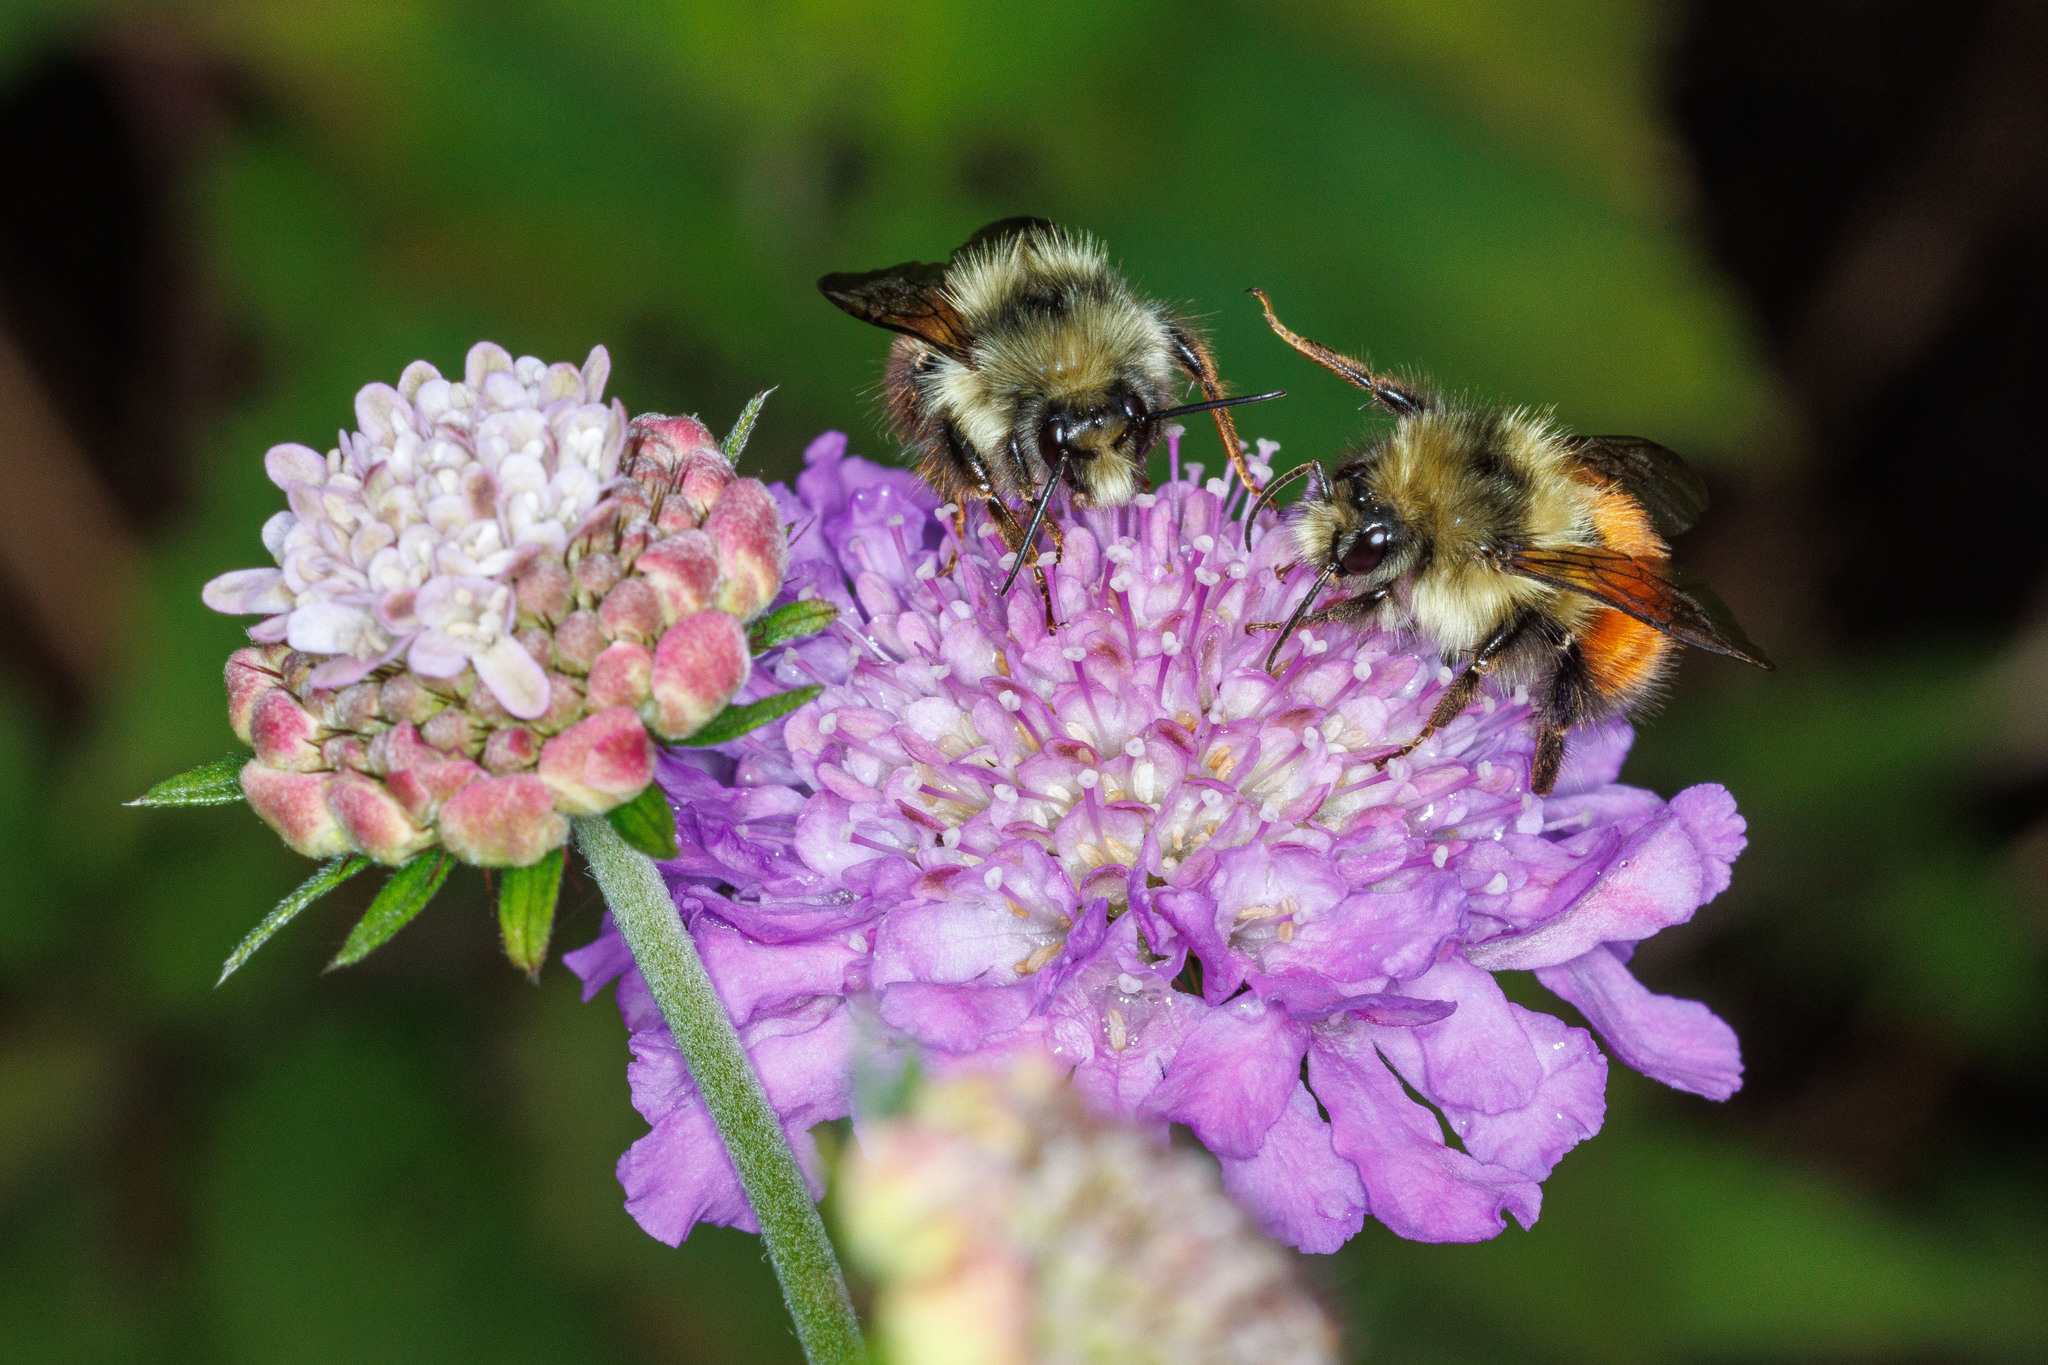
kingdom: Animalia
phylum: Arthropoda
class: Insecta
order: Hymenoptera
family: Apidae
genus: Bombus
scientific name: Bombus melanopygus
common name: Black tail bumble bee
